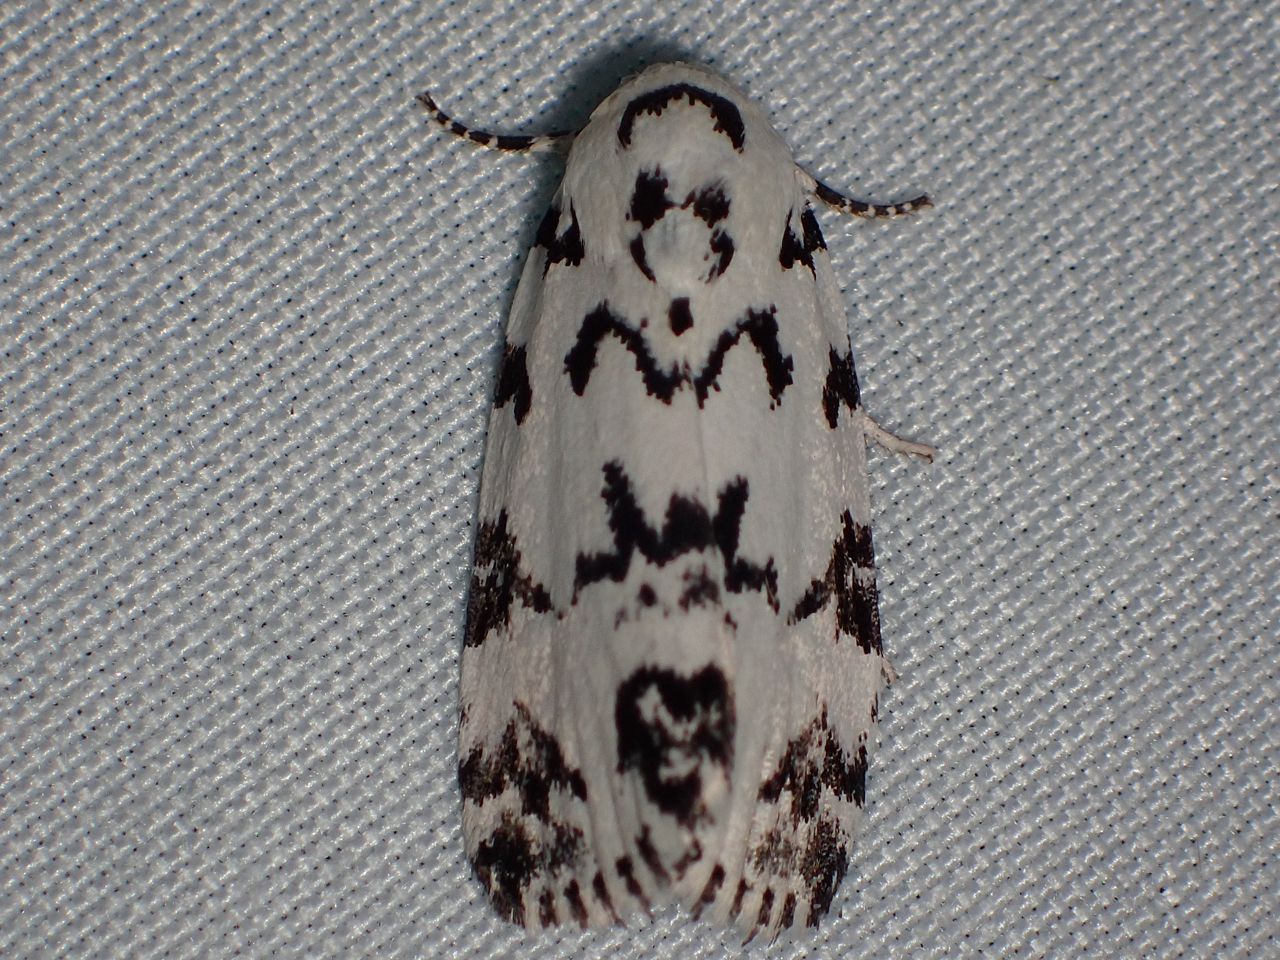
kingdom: Animalia
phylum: Arthropoda
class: Insecta
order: Lepidoptera
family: Noctuidae
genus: Polygrammate
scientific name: Polygrammate hebraeicum
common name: Hebrew moth
